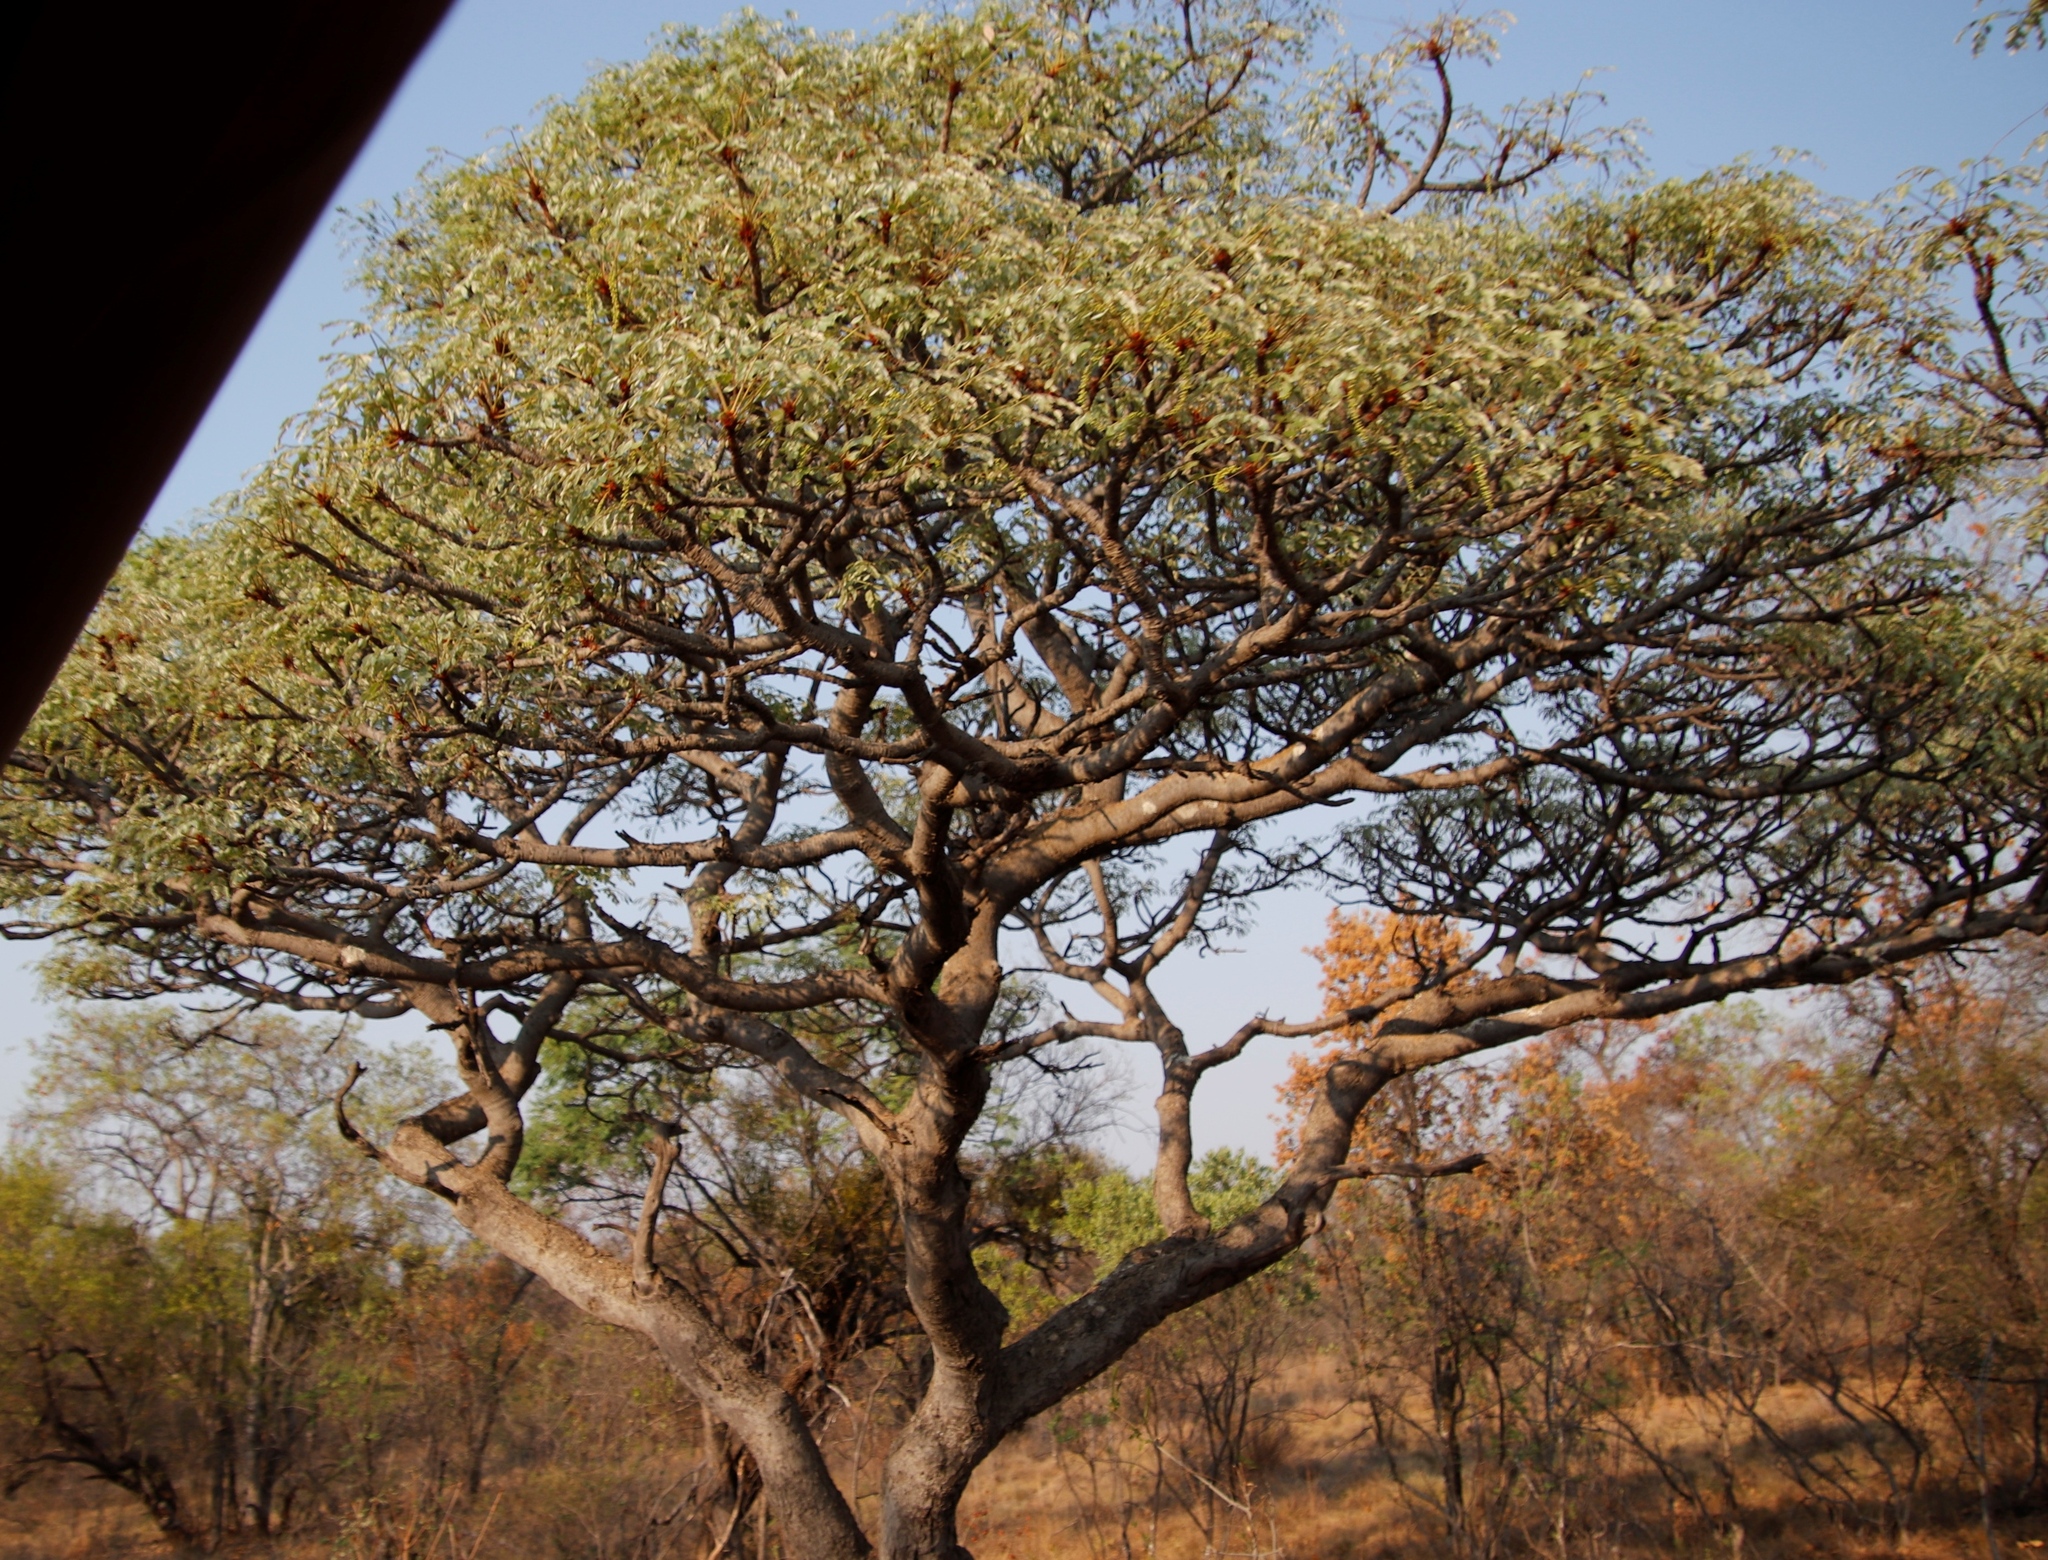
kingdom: Plantae
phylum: Tracheophyta
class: Magnoliopsida
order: Fabales
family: Fabaceae
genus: Burkea
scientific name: Burkea africana
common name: Mkalati tree
